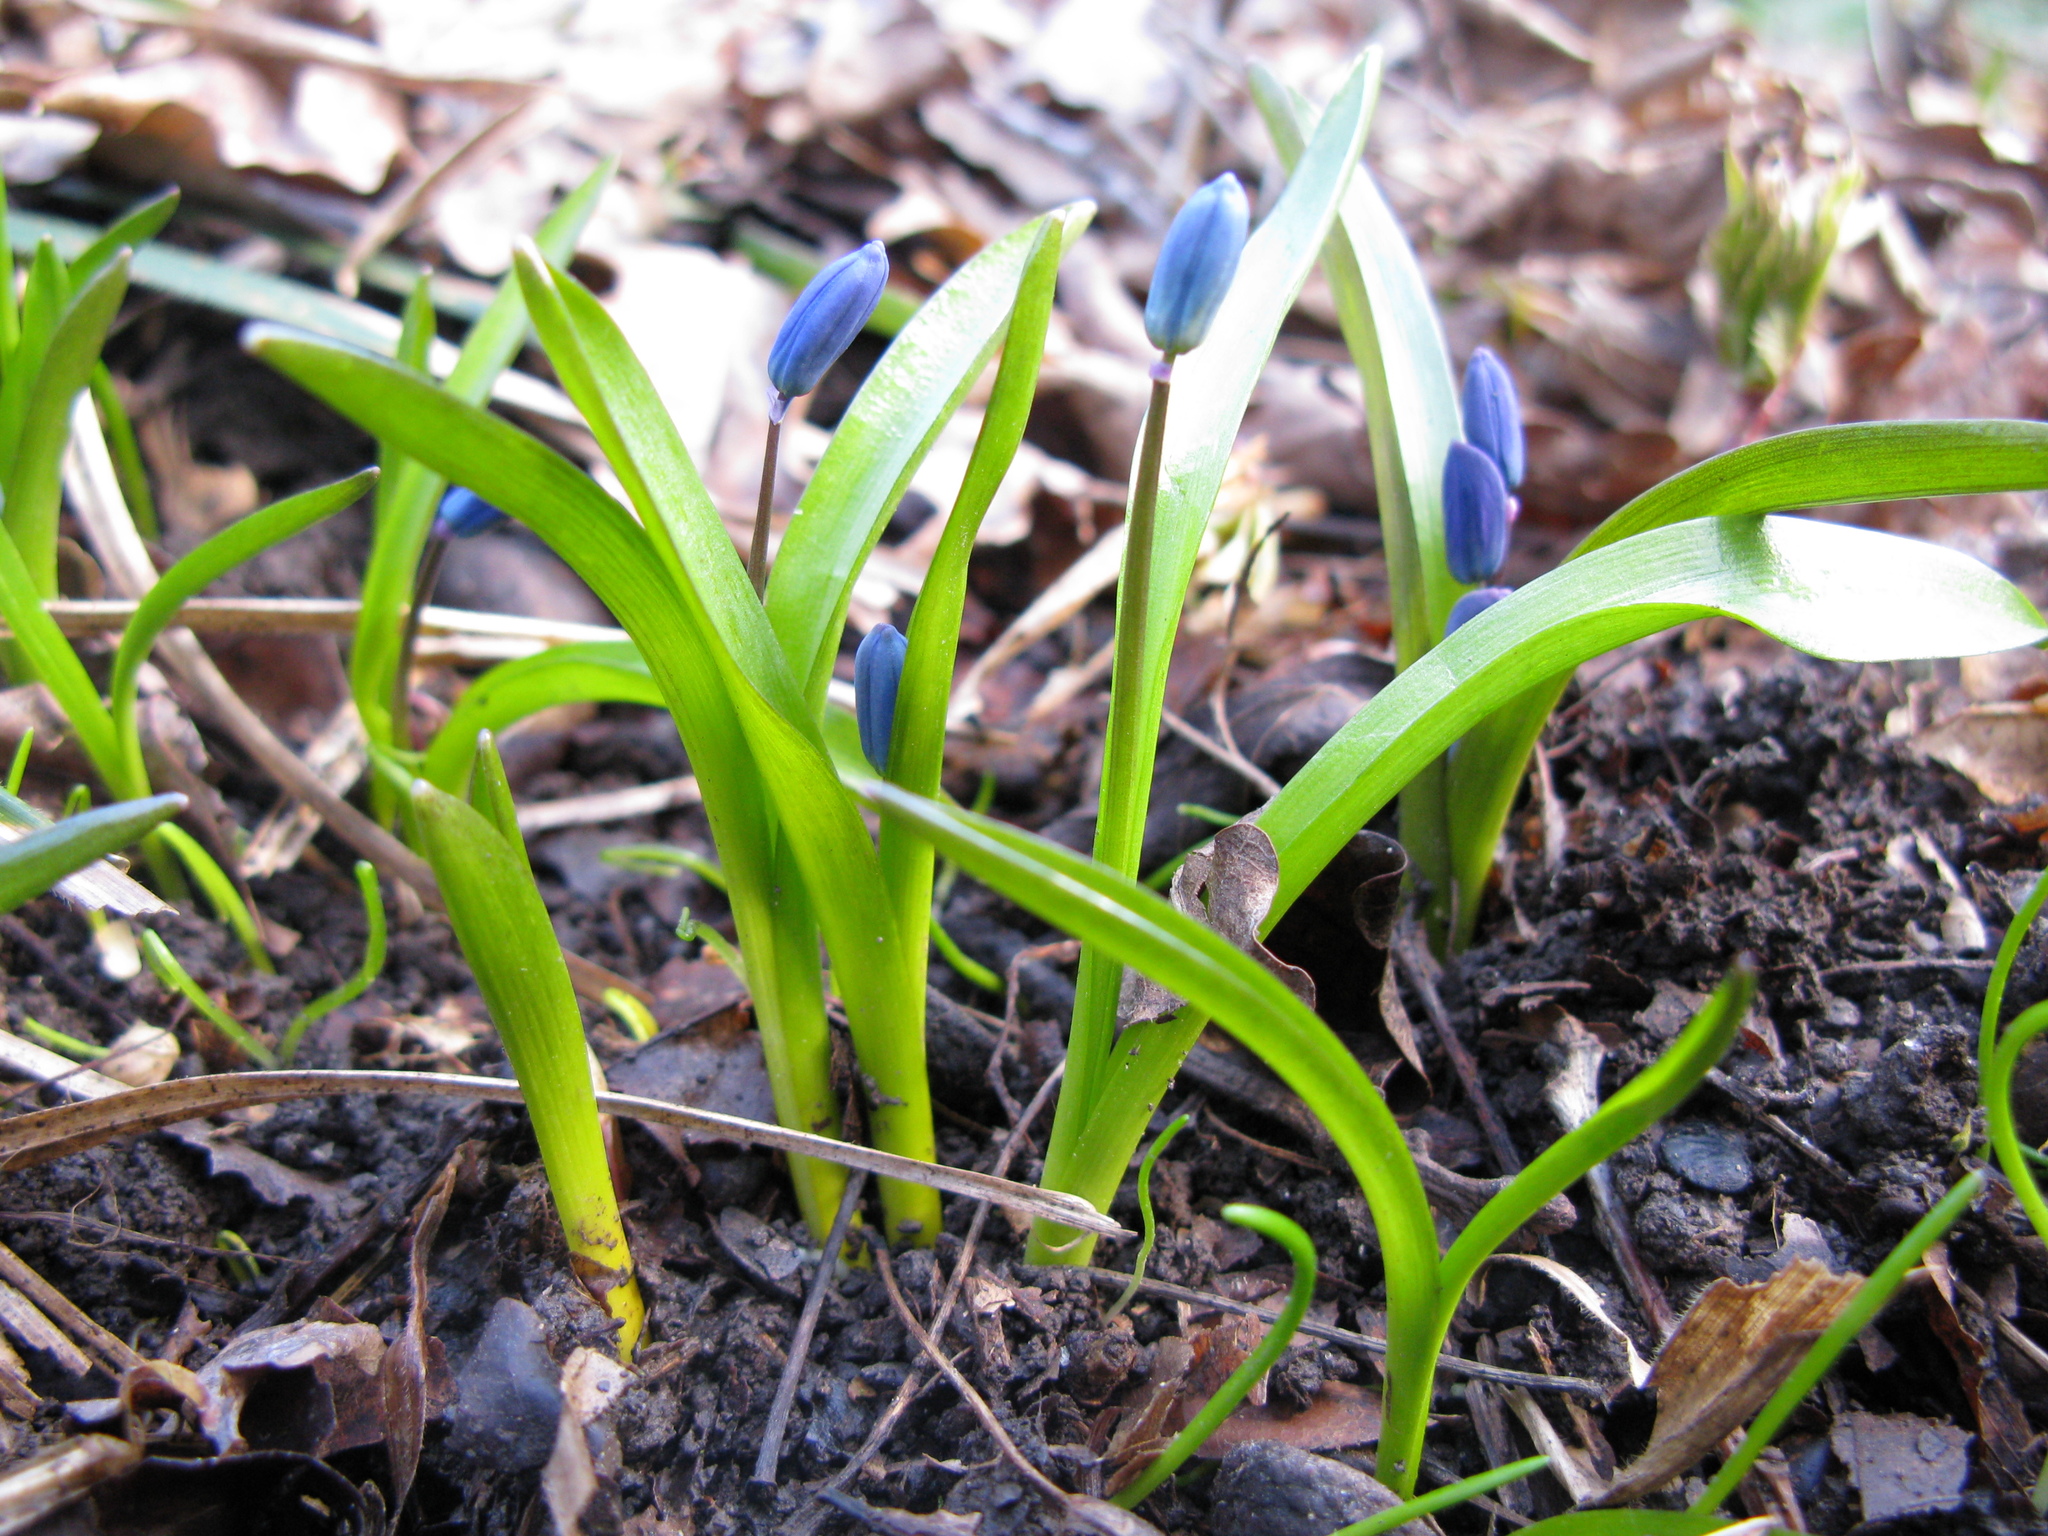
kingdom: Plantae
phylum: Tracheophyta
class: Liliopsida
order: Asparagales
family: Asparagaceae
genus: Scilla
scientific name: Scilla siberica
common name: Siberian squill
